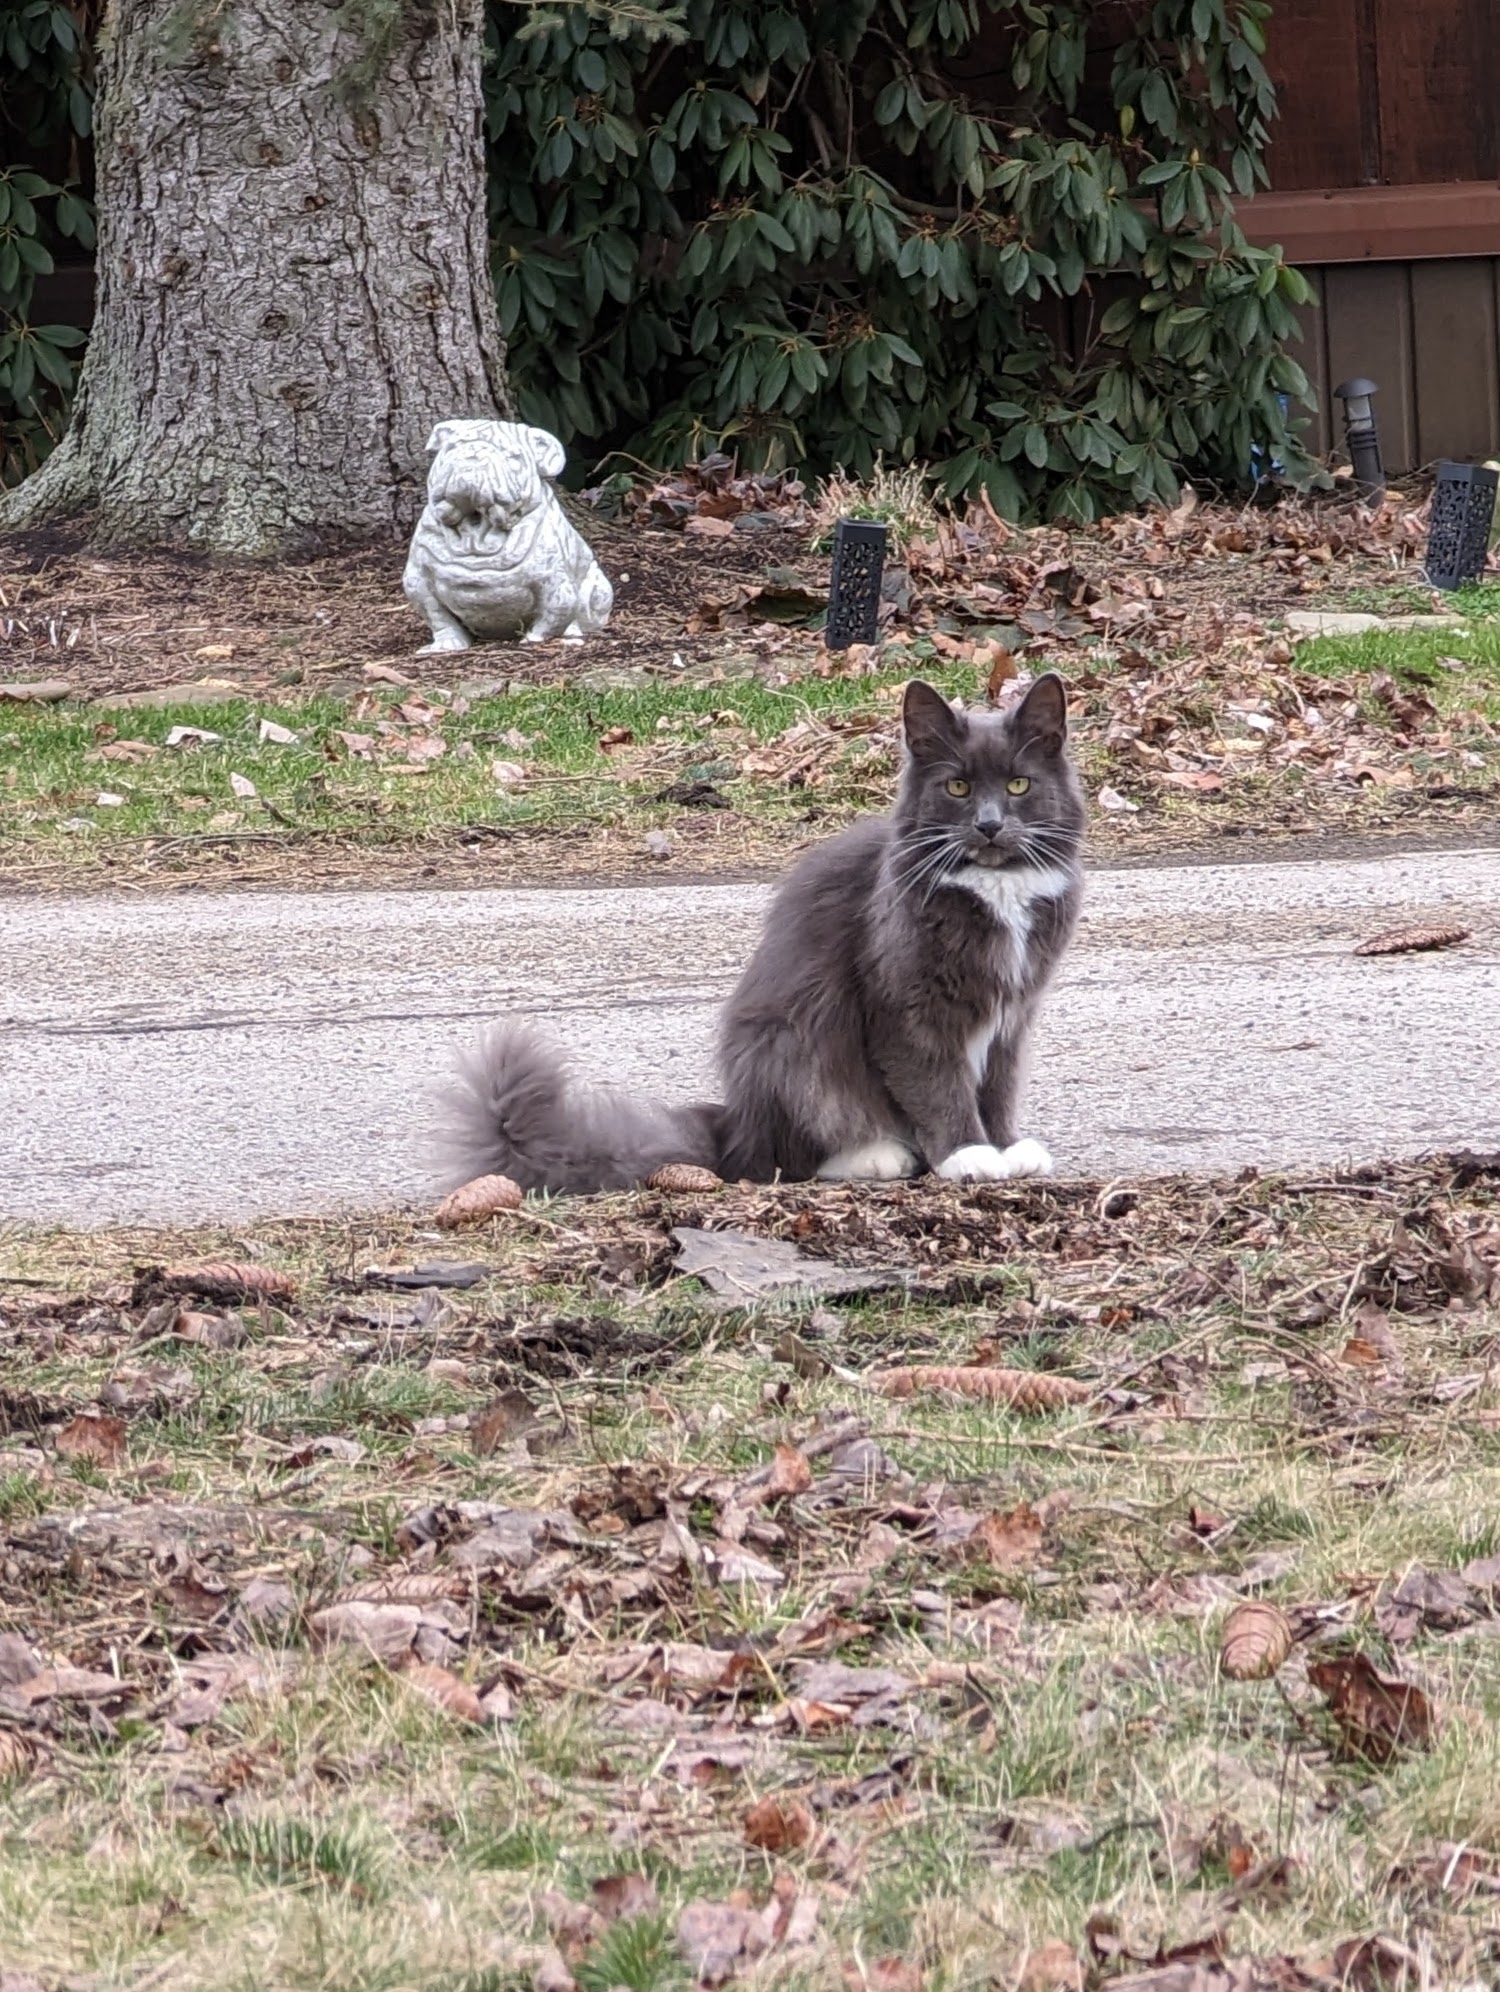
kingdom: Animalia
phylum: Chordata
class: Mammalia
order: Carnivora
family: Felidae
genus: Felis
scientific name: Felis catus
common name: Domestic cat
